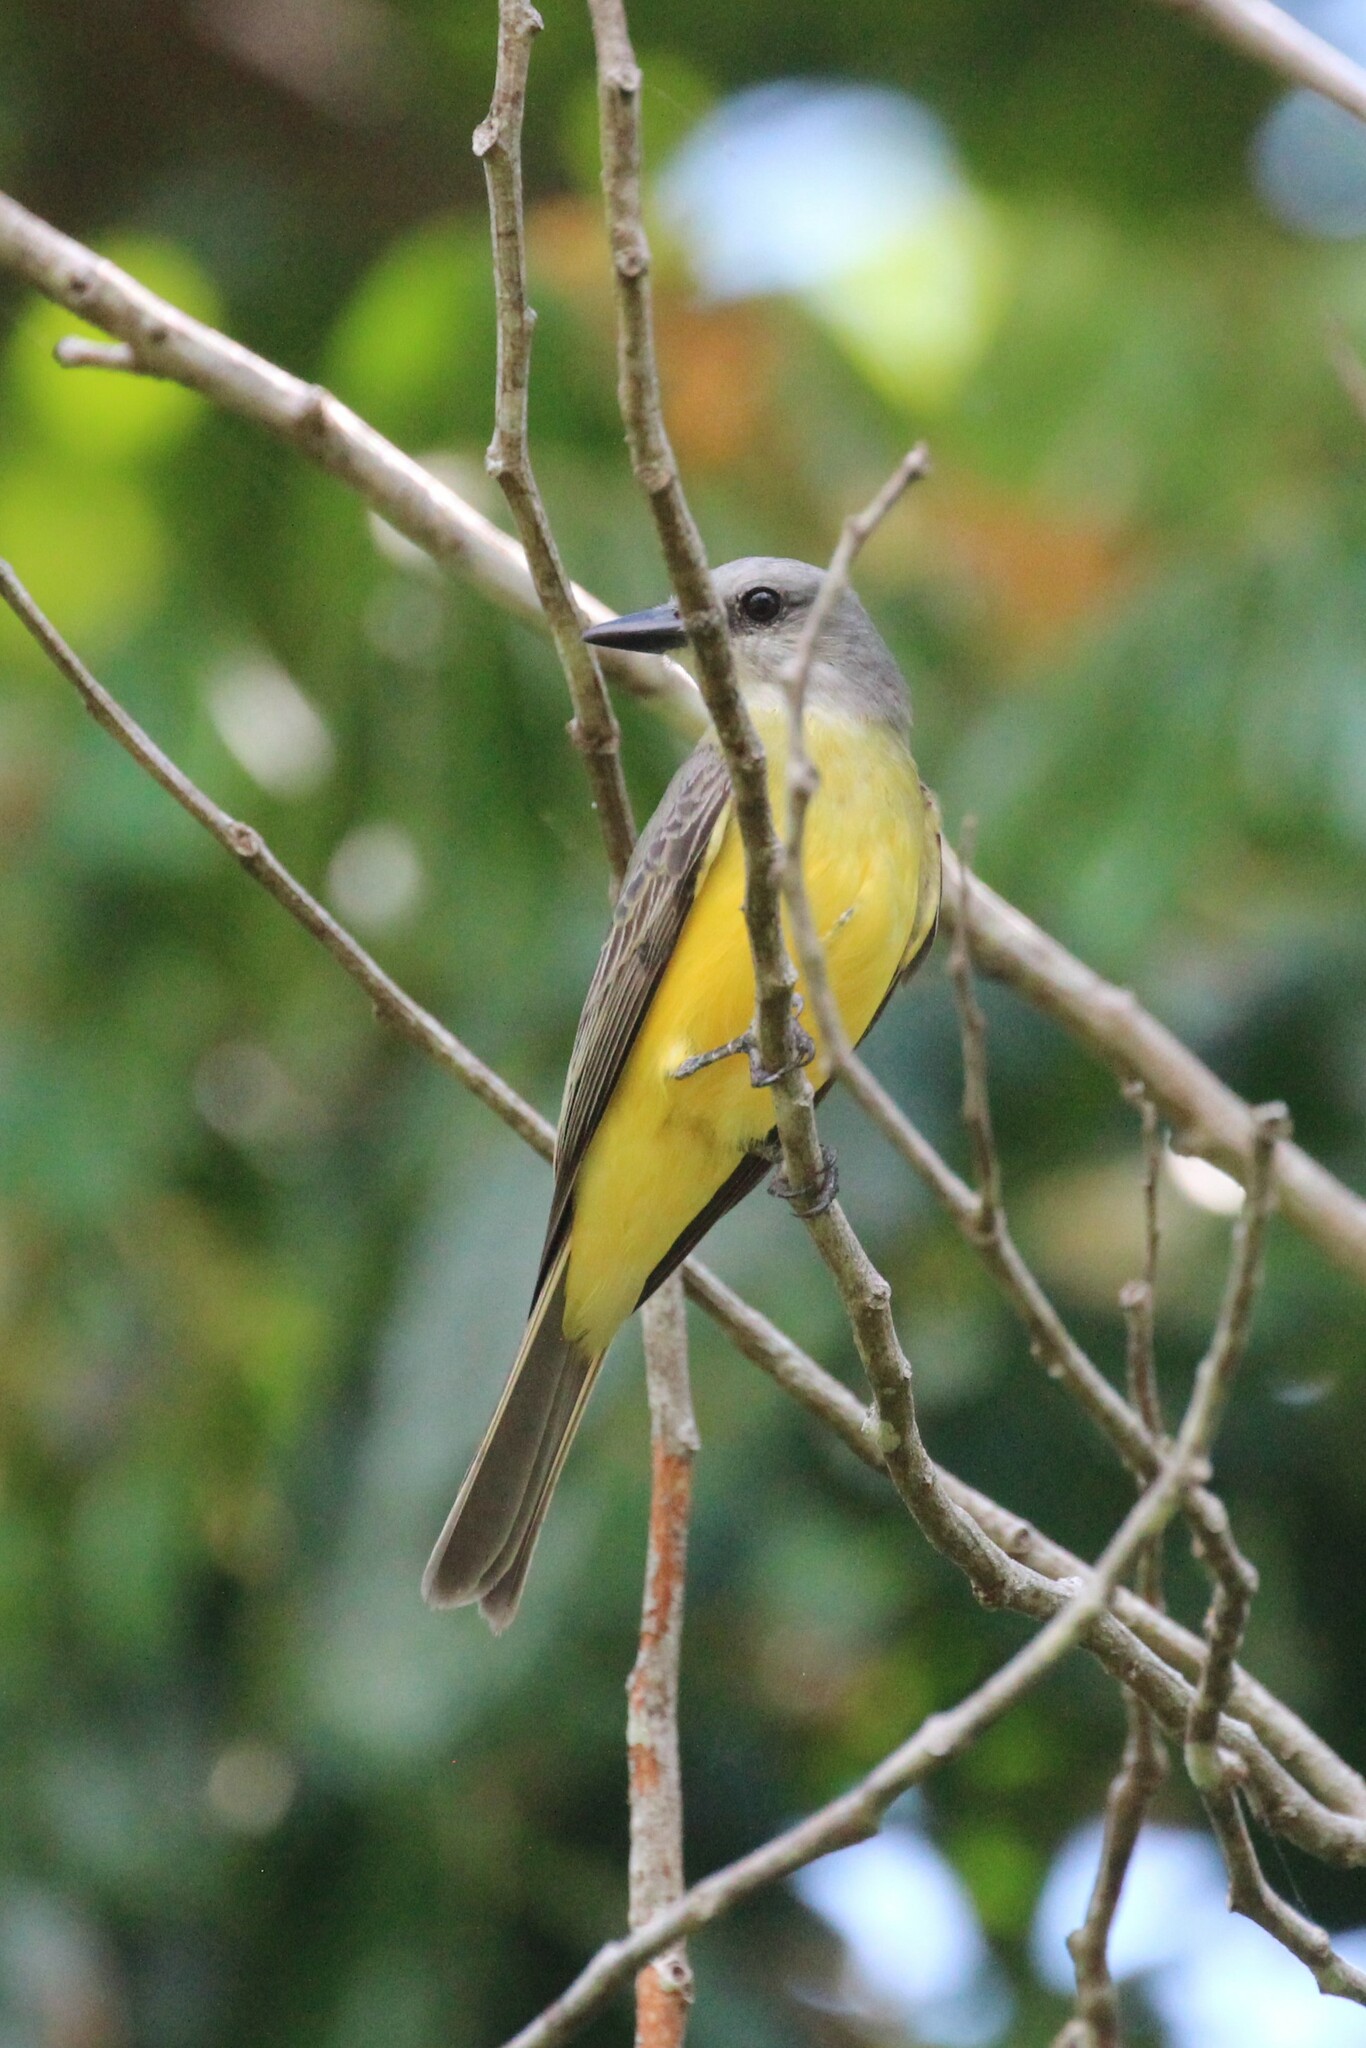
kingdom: Animalia
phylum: Chordata
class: Aves
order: Passeriformes
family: Tyrannidae
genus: Tyrannus
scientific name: Tyrannus melancholicus
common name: Tropical kingbird
